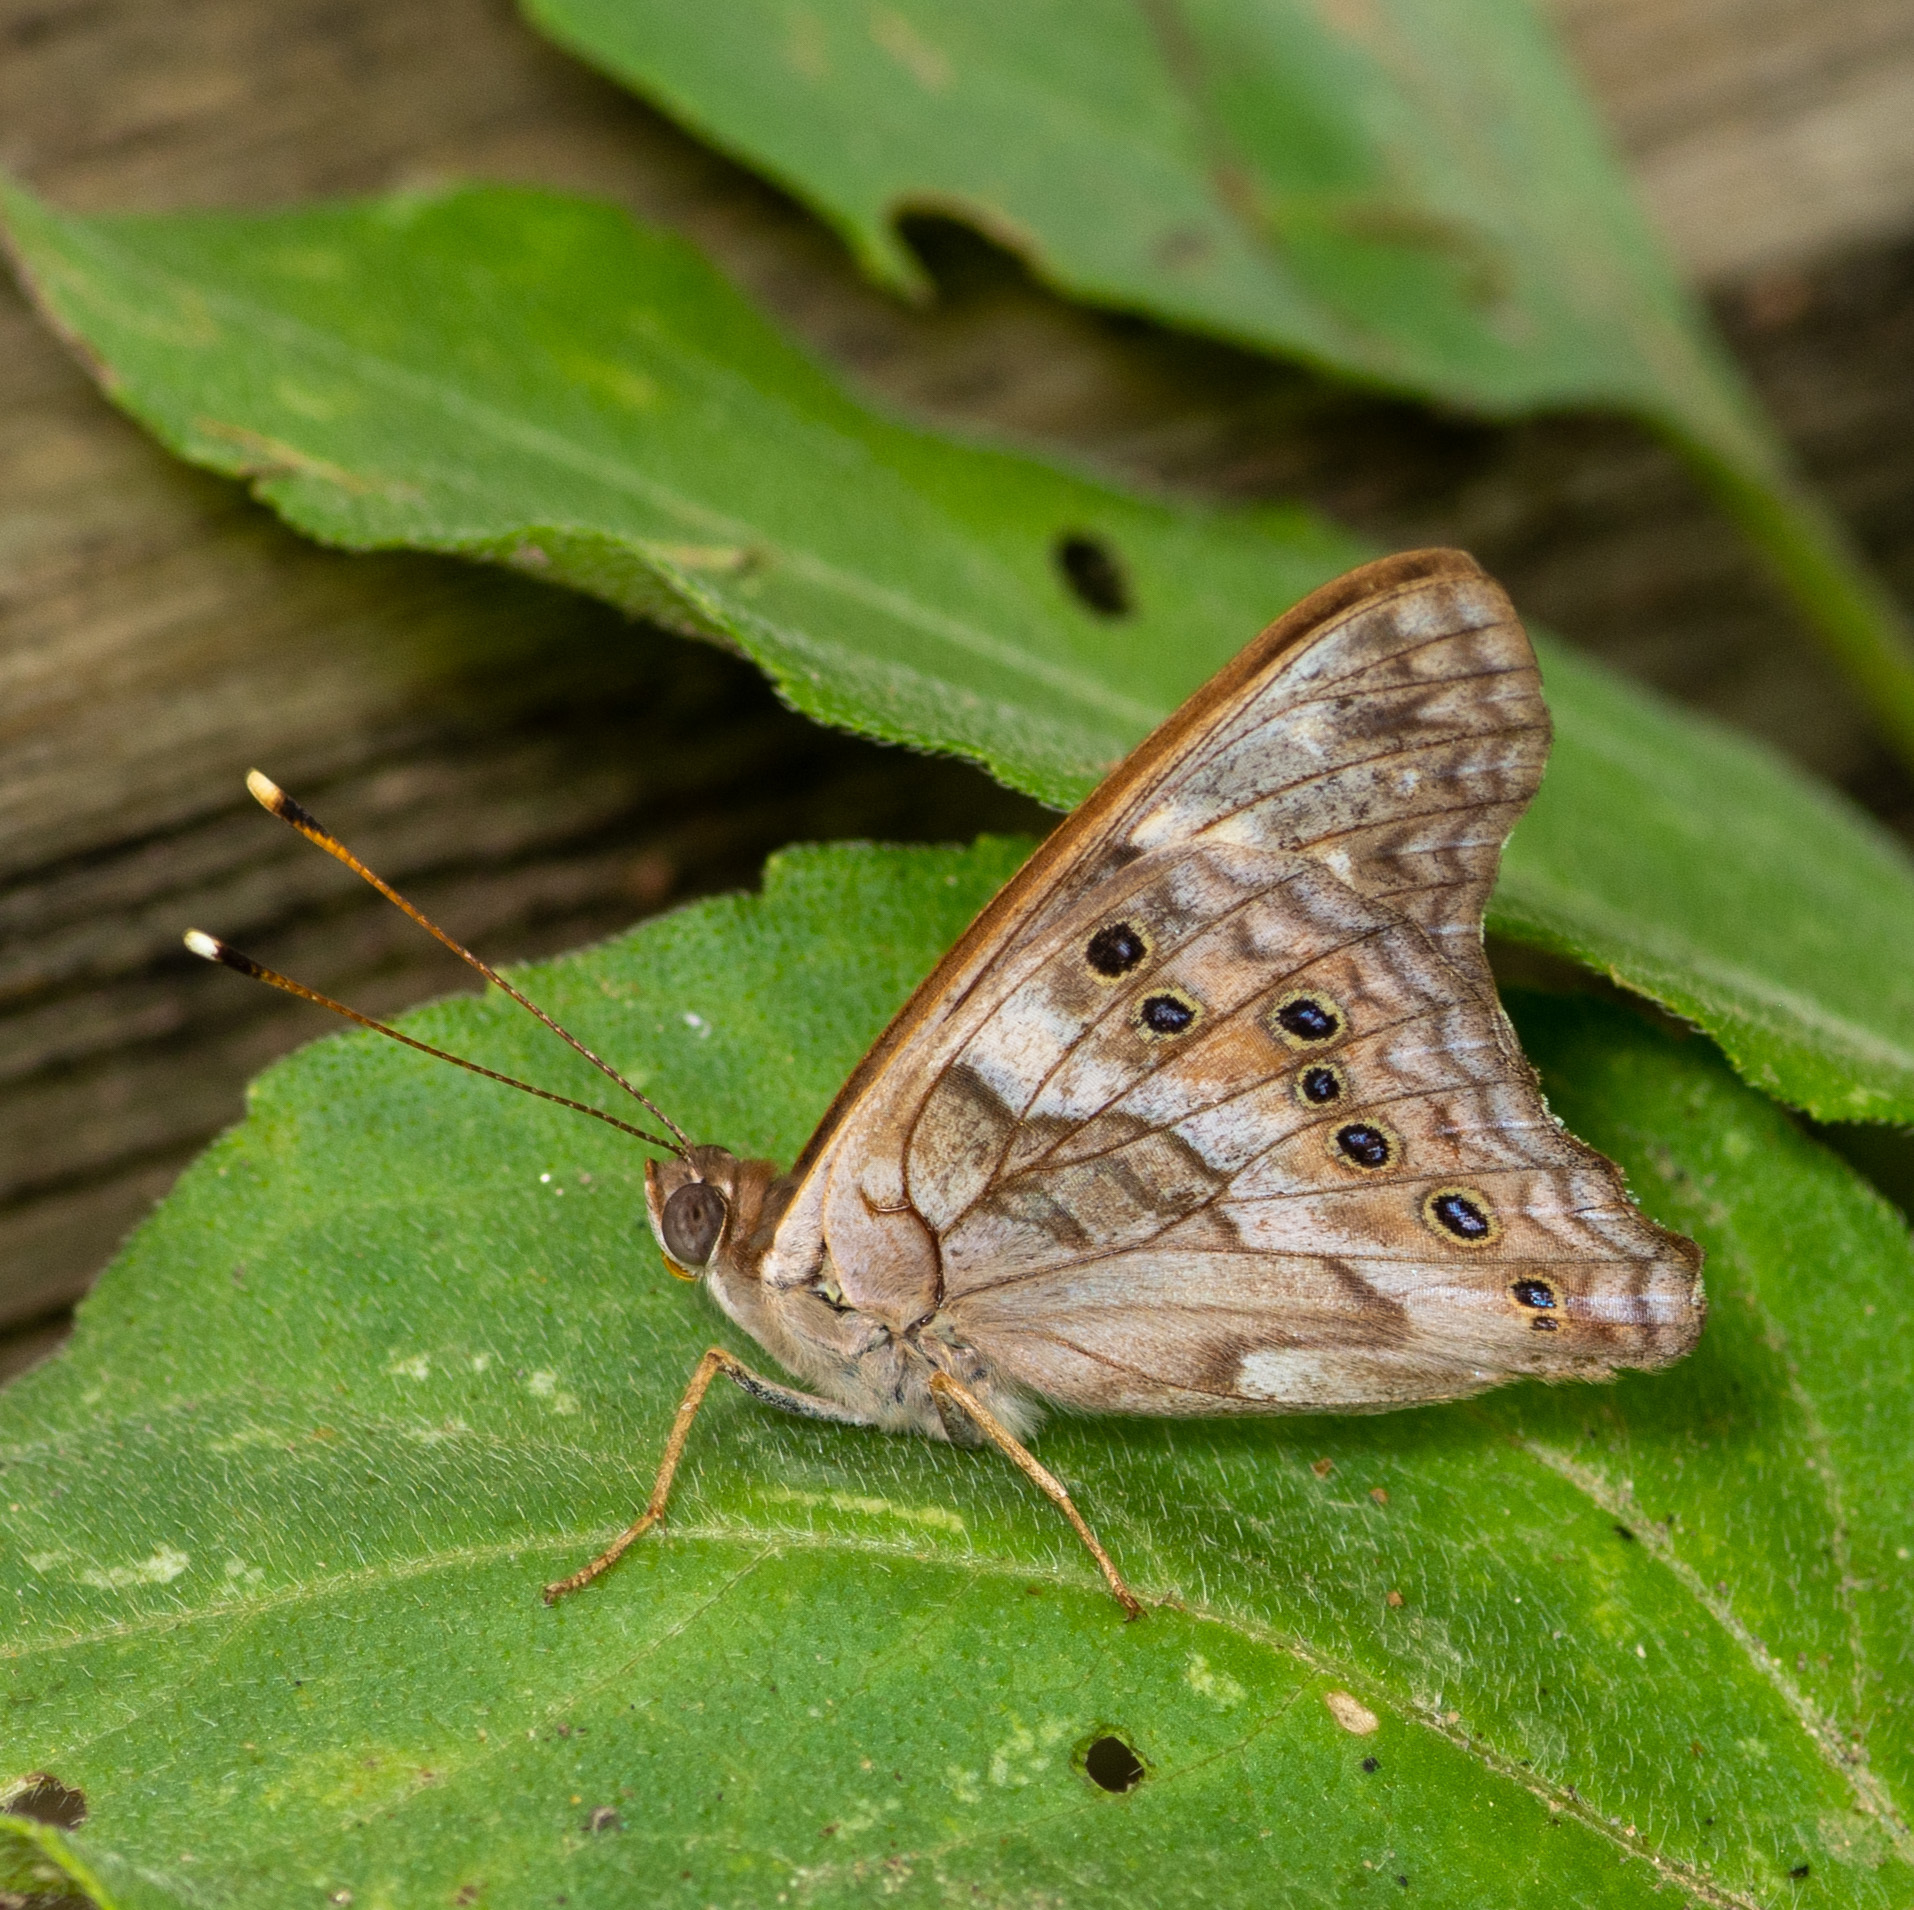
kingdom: Animalia
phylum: Arthropoda
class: Insecta
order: Lepidoptera
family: Nymphalidae
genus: Asterocampa
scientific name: Asterocampa clyton
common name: Tawny emperor
